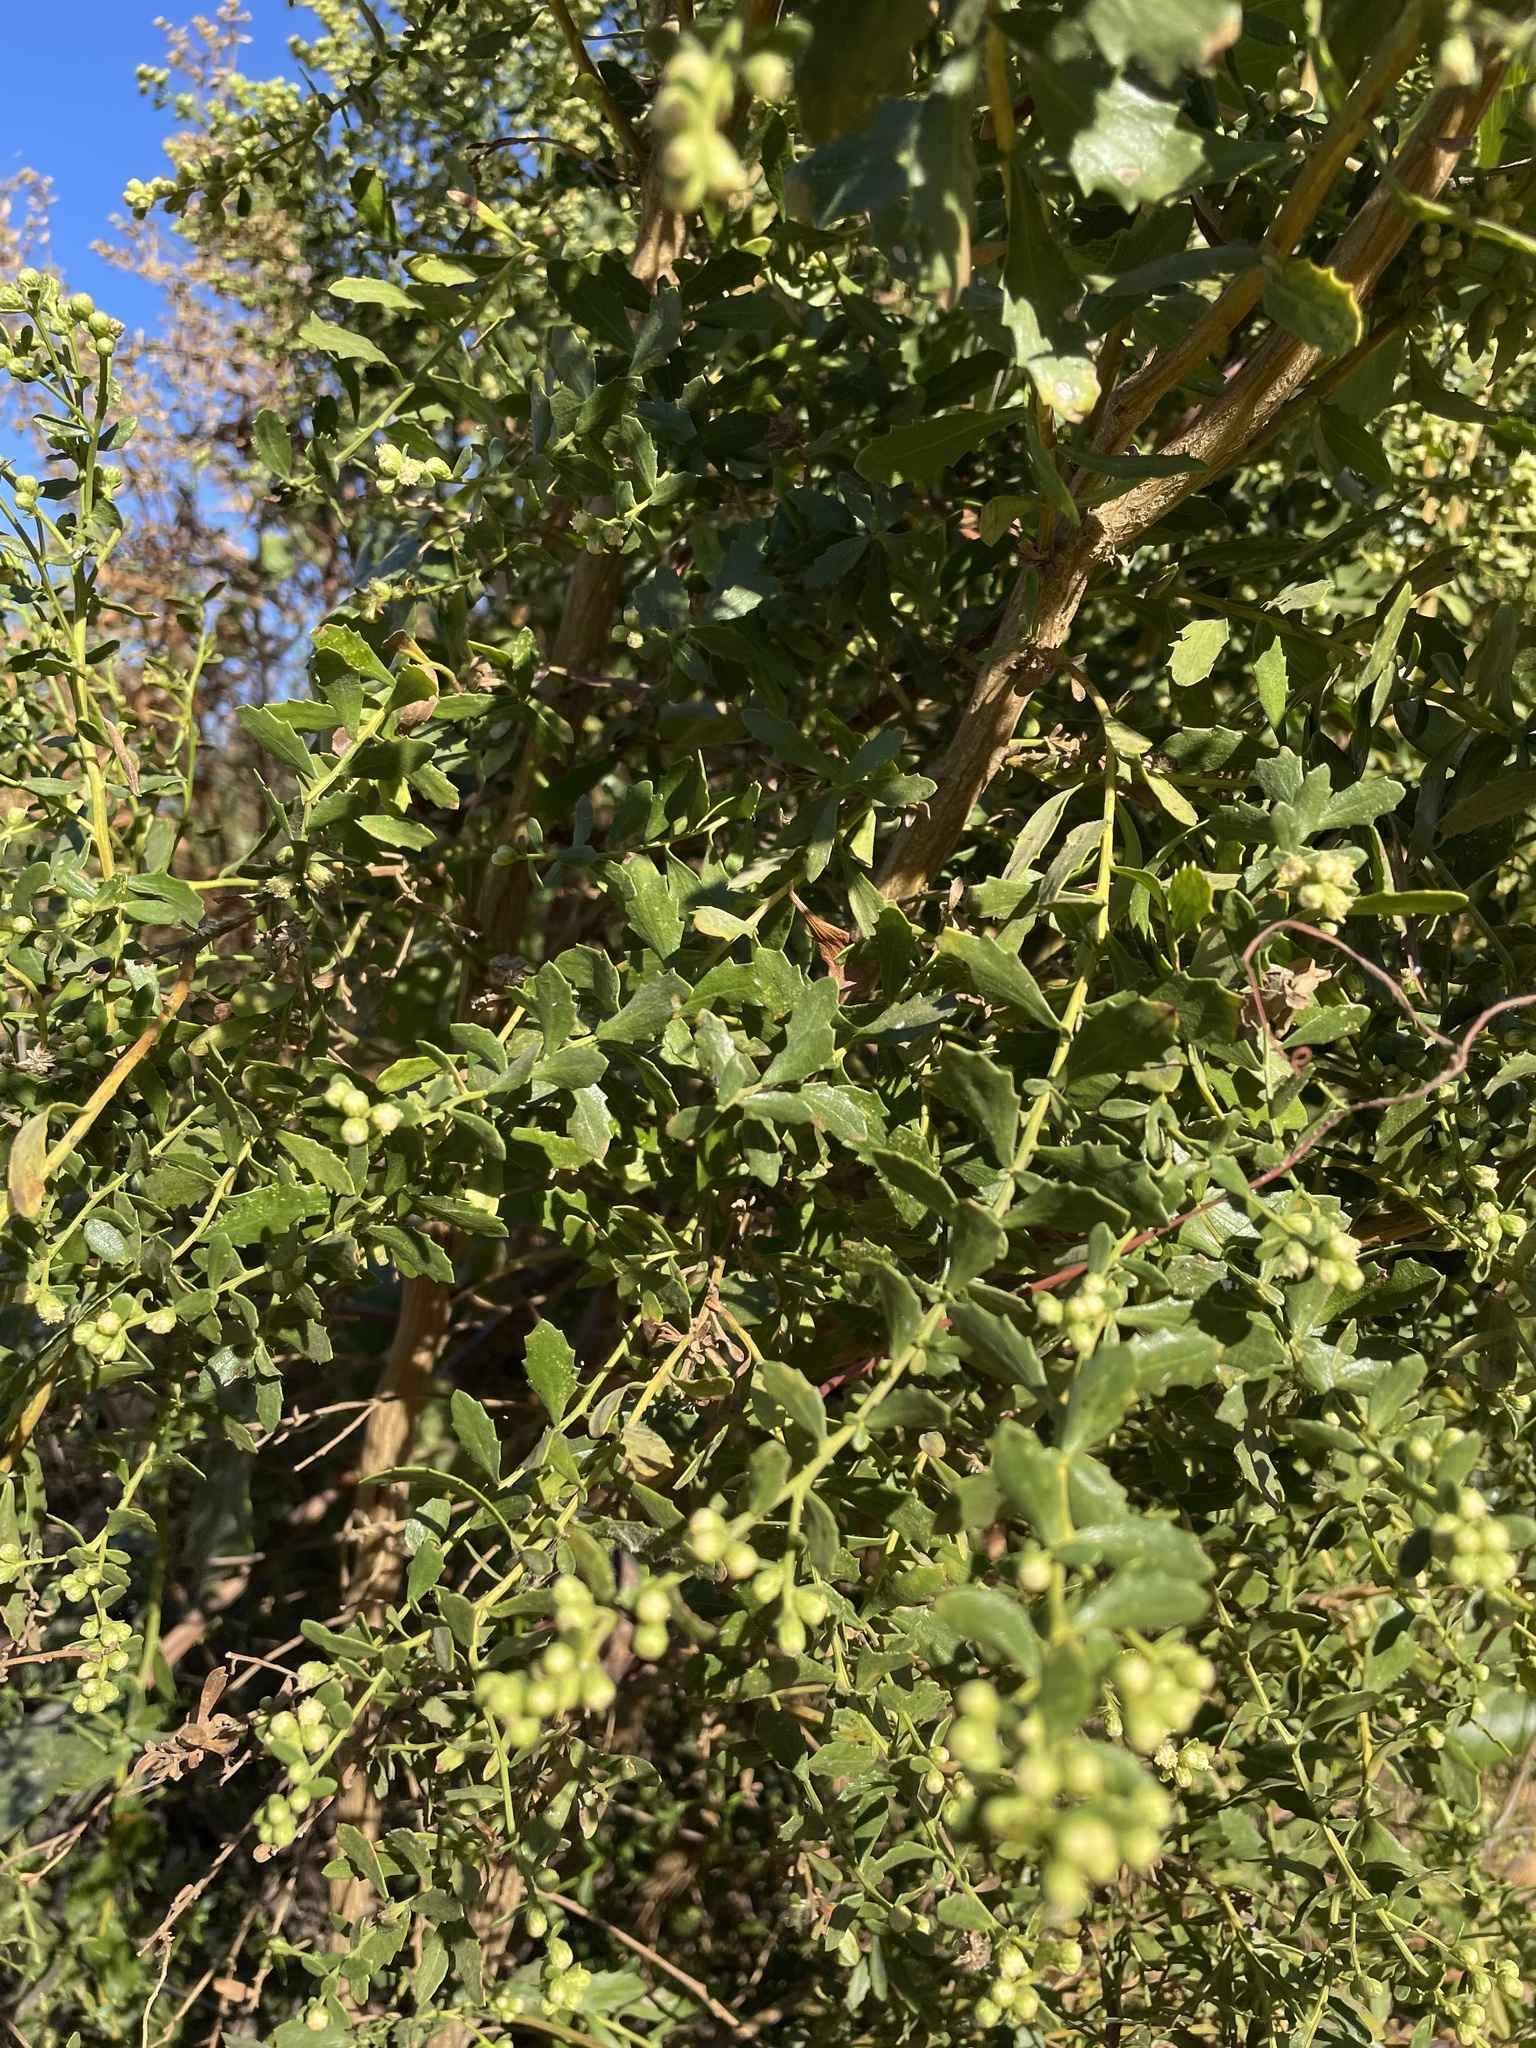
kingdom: Plantae
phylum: Tracheophyta
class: Magnoliopsida
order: Asterales
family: Asteraceae
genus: Baccharis
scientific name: Baccharis pilularis
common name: Coyotebrush
